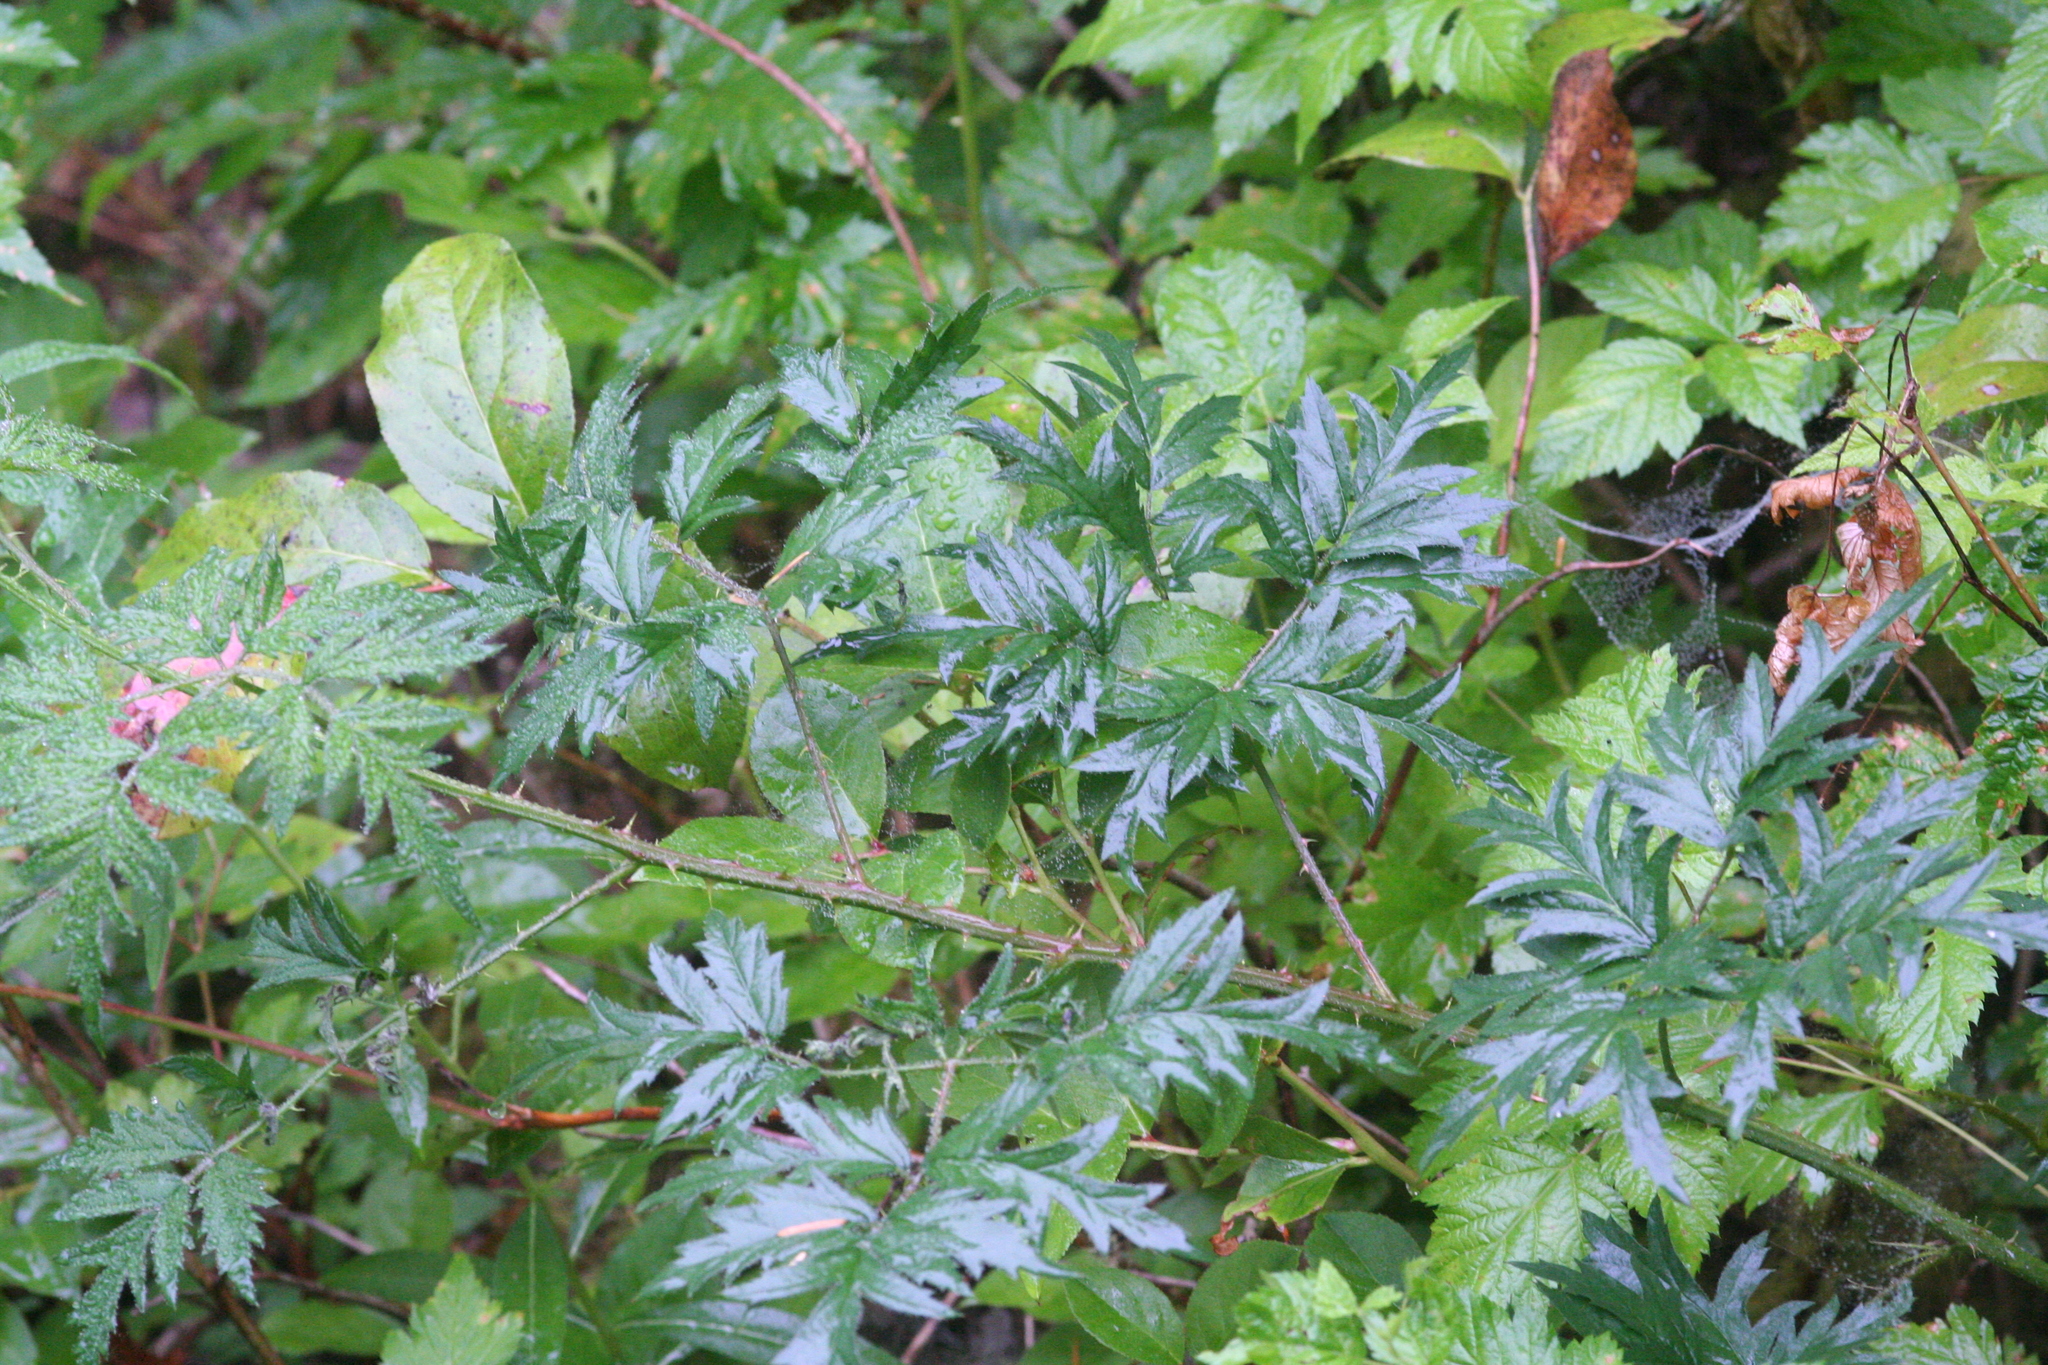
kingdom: Plantae
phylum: Tracheophyta
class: Magnoliopsida
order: Rosales
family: Rosaceae
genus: Rubus
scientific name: Rubus laciniatus
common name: Evergreen blackberry
